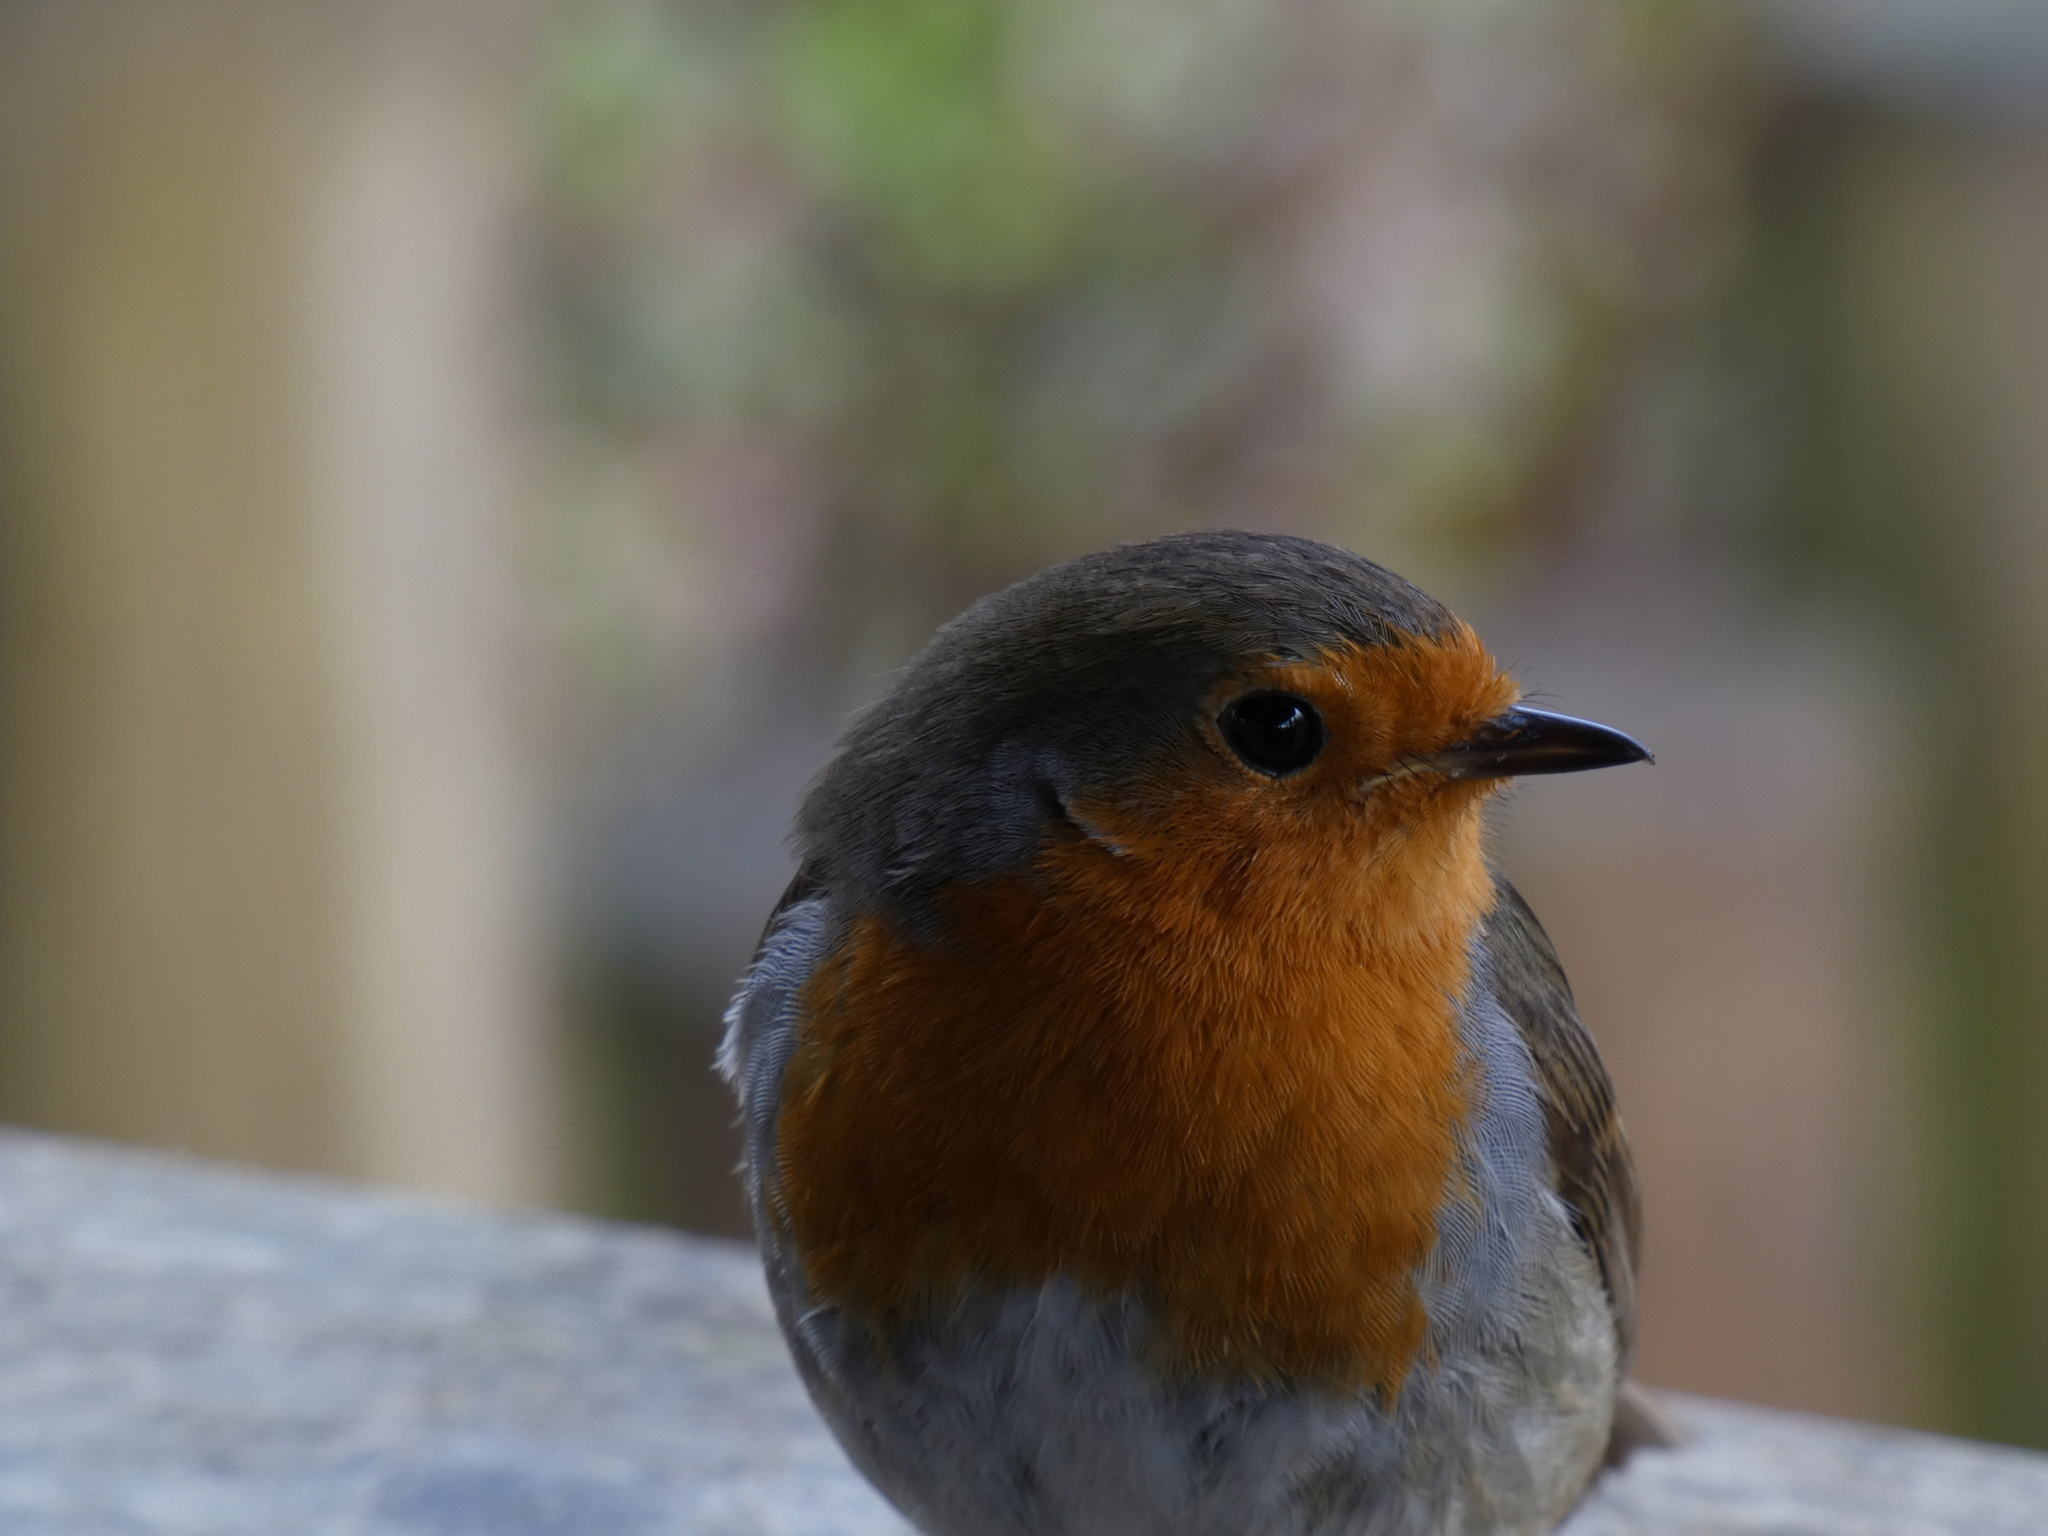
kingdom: Animalia
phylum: Chordata
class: Aves
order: Passeriformes
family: Muscicapidae
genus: Erithacus
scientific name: Erithacus rubecula
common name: European robin
